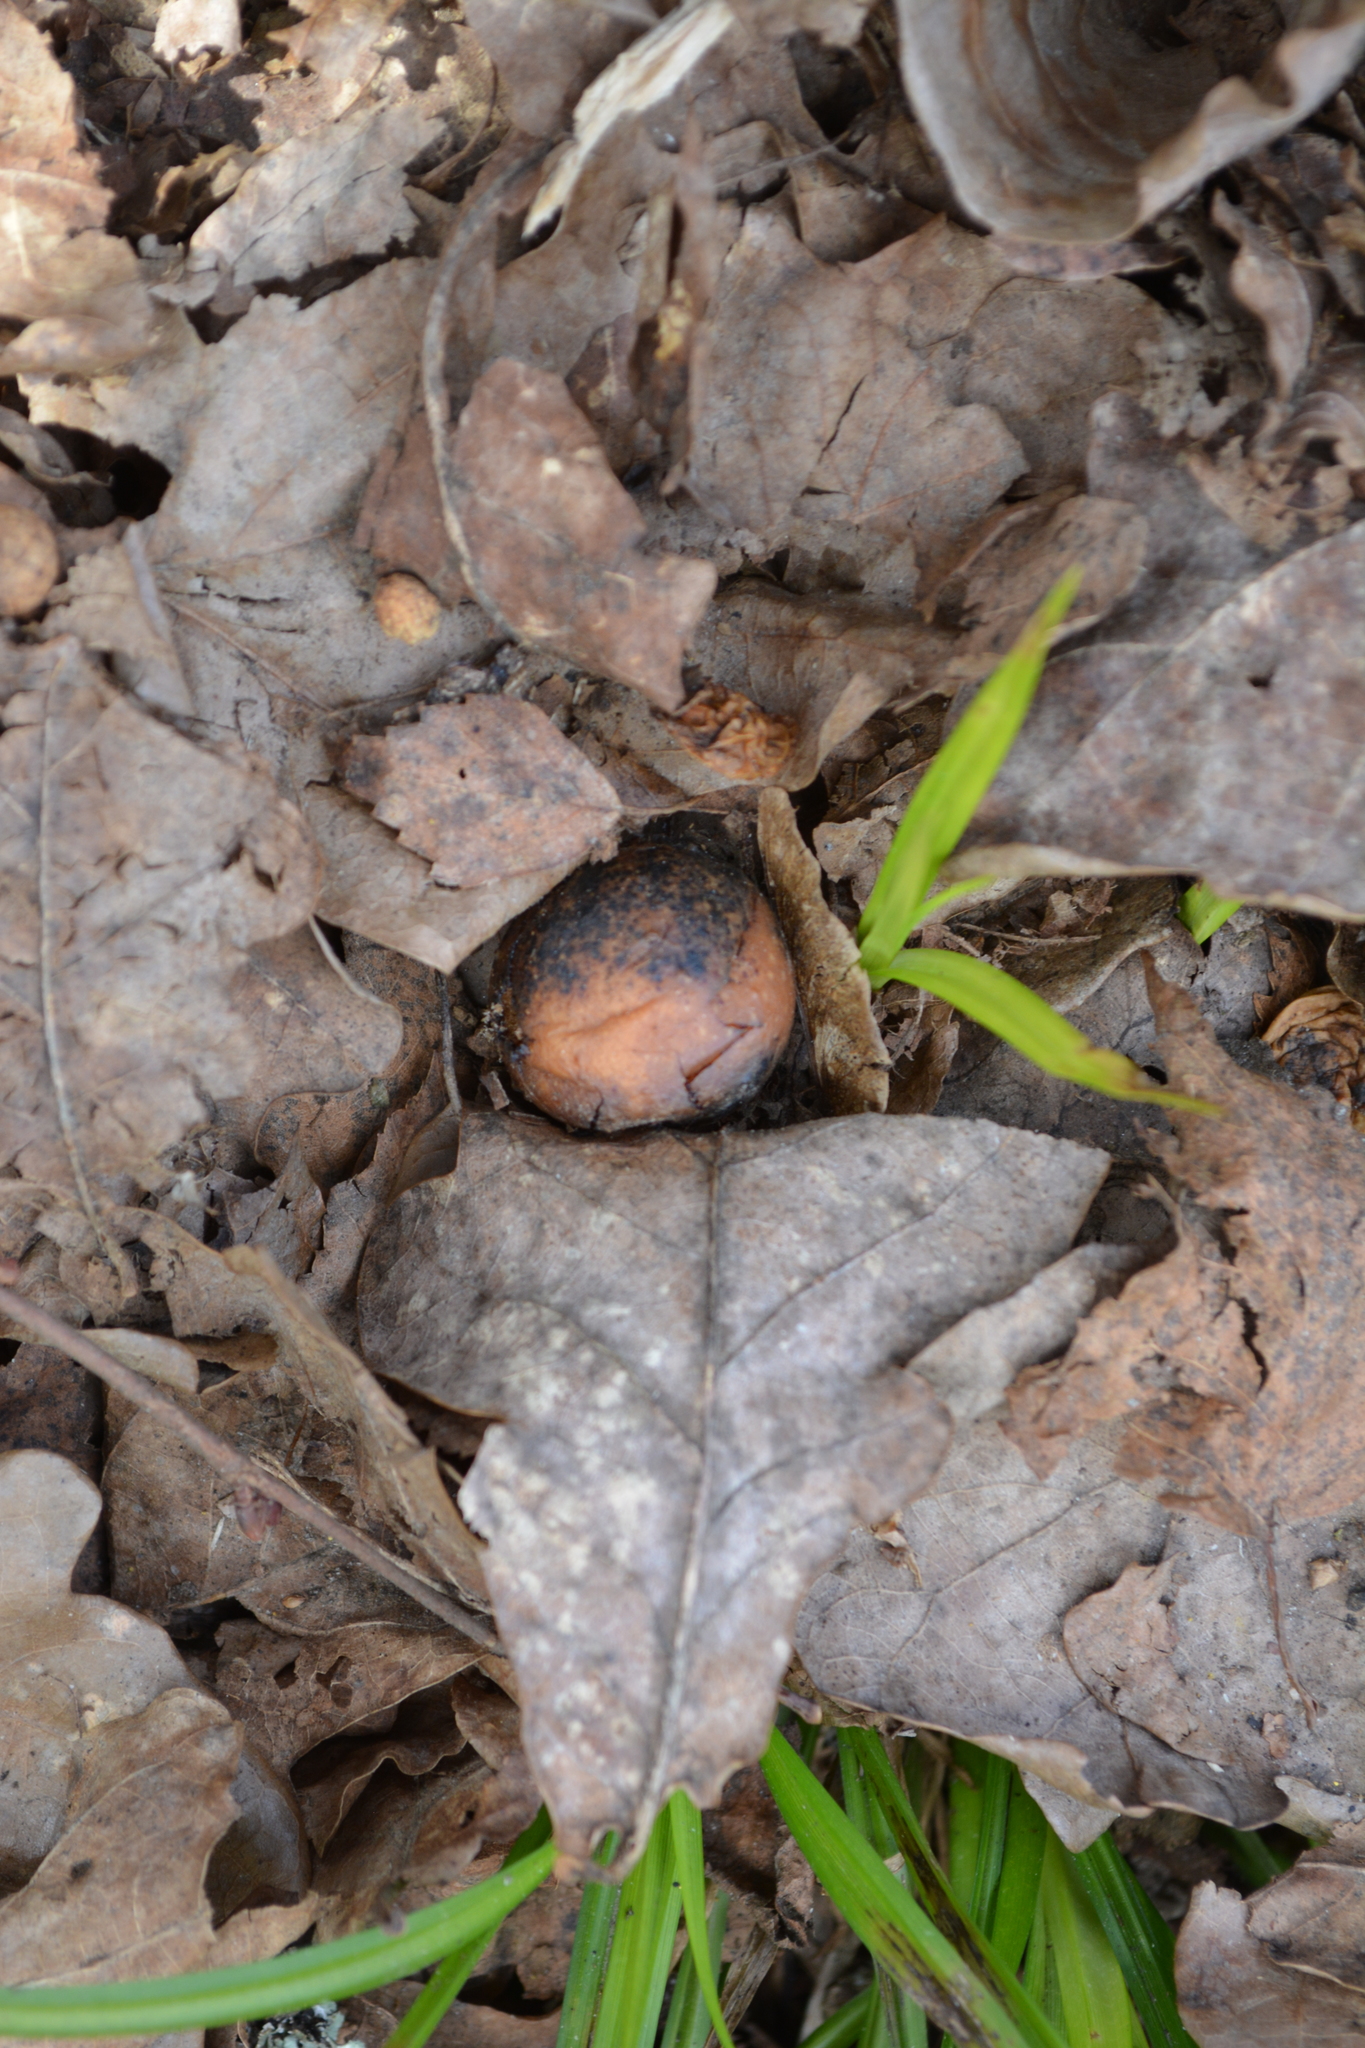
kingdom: Animalia
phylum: Arthropoda
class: Insecta
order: Hymenoptera
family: Cynipidae
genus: Cynips
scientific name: Cynips quercusfolii
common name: Cherry gall
